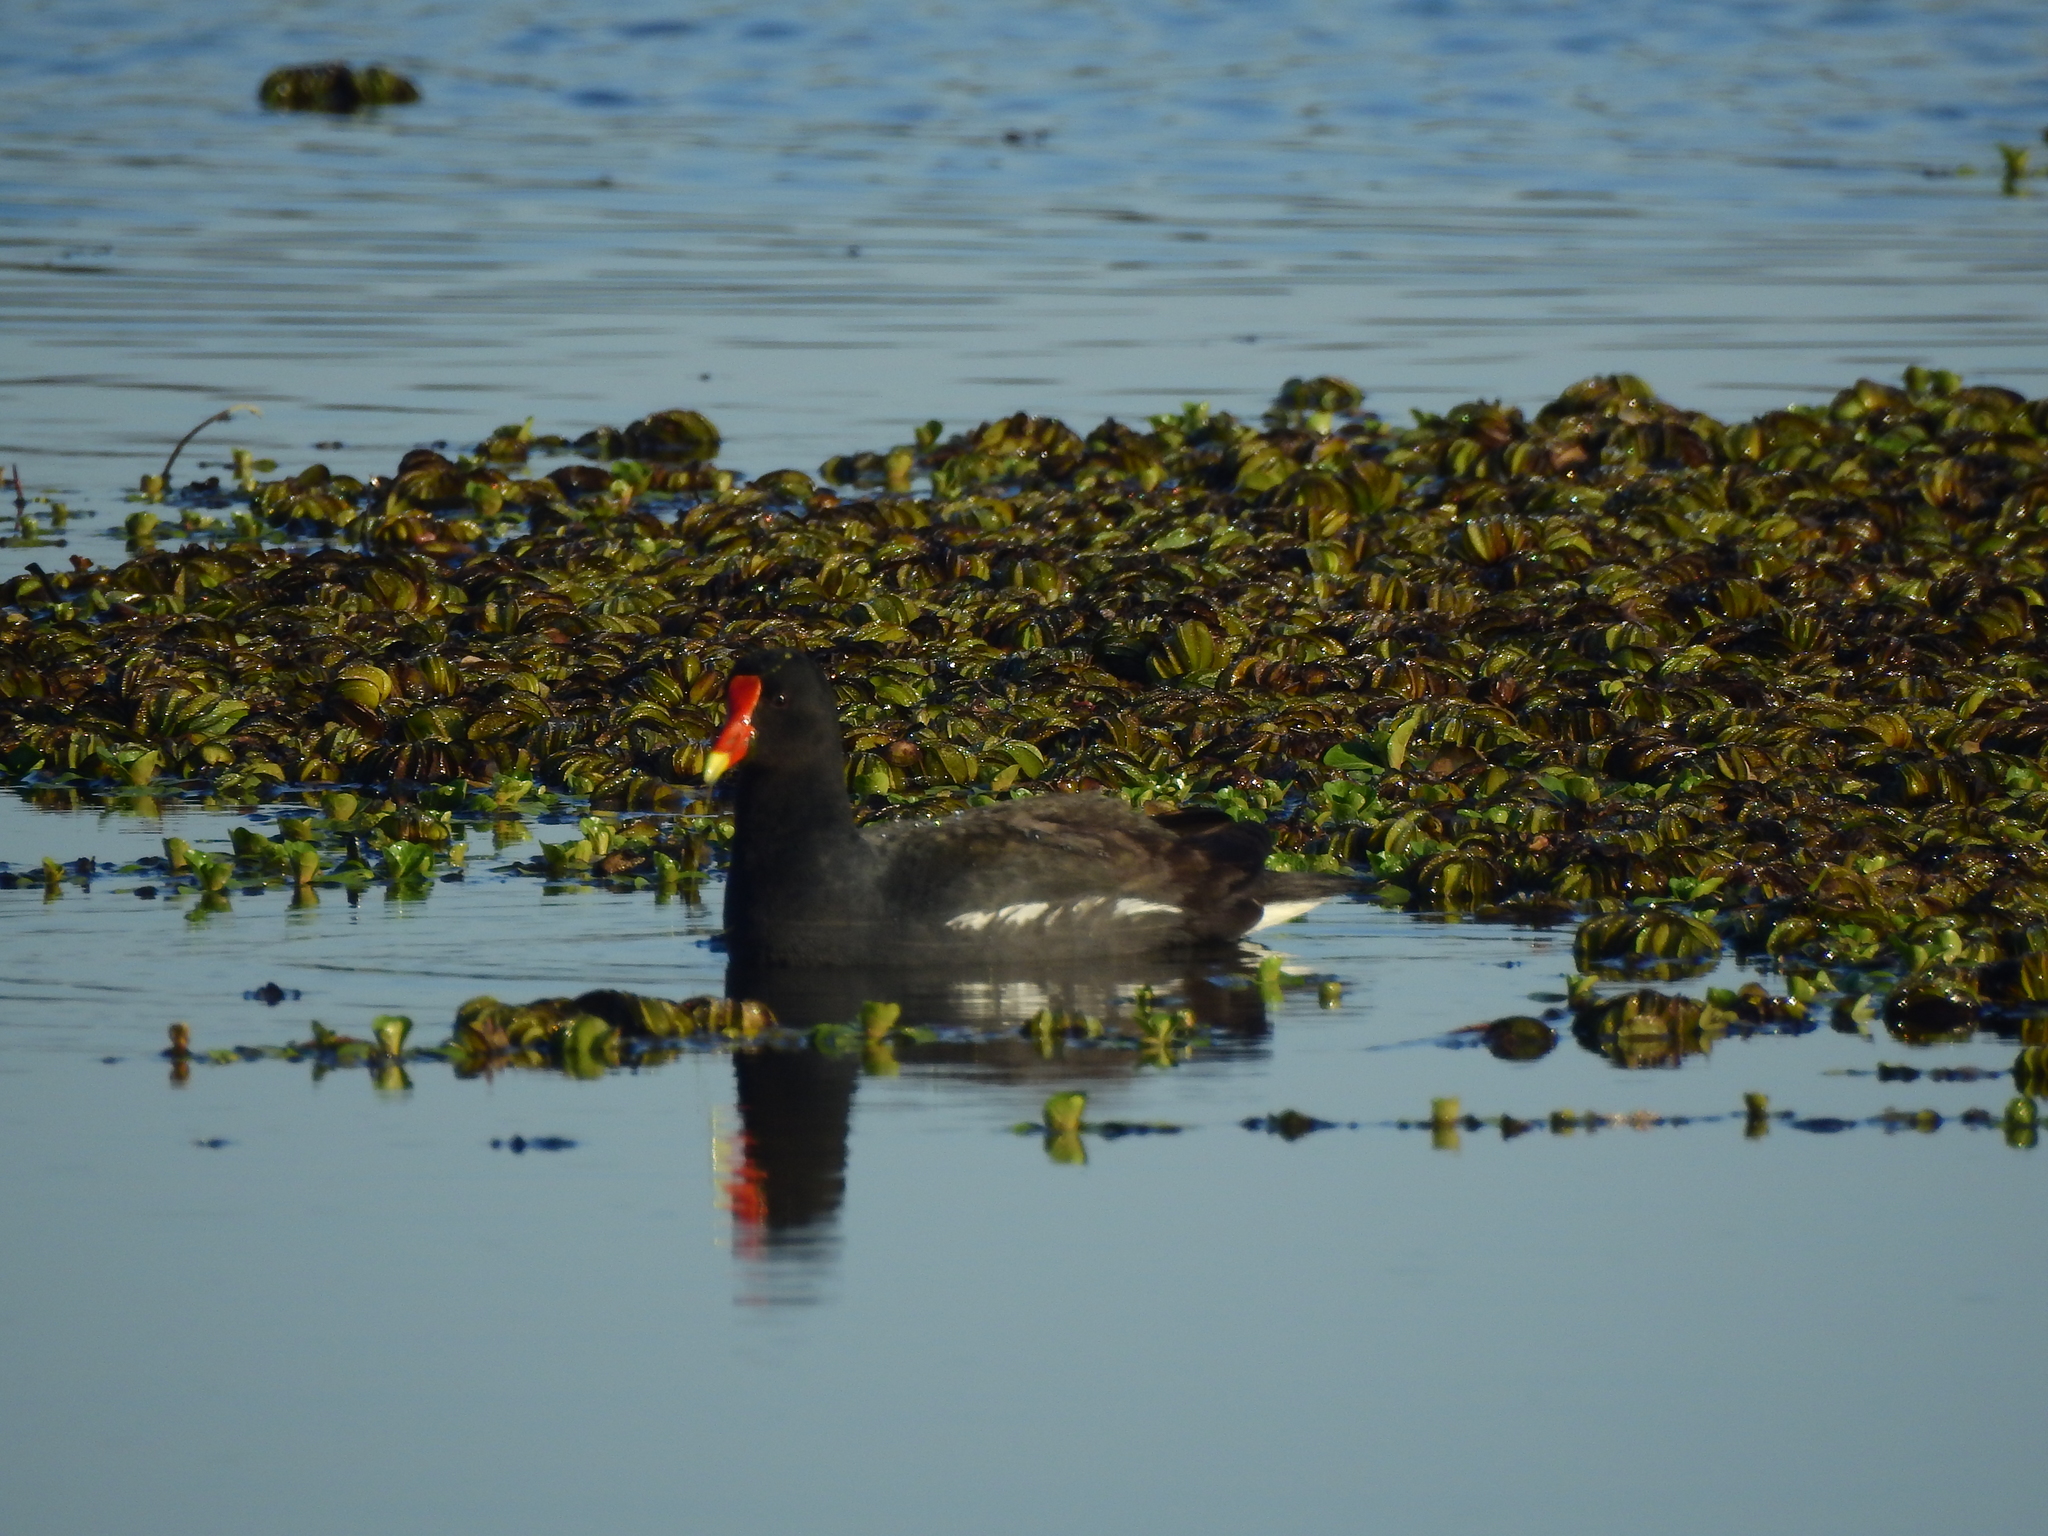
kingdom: Animalia
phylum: Chordata
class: Aves
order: Gruiformes
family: Rallidae
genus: Gallinula
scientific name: Gallinula chloropus
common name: Common moorhen
